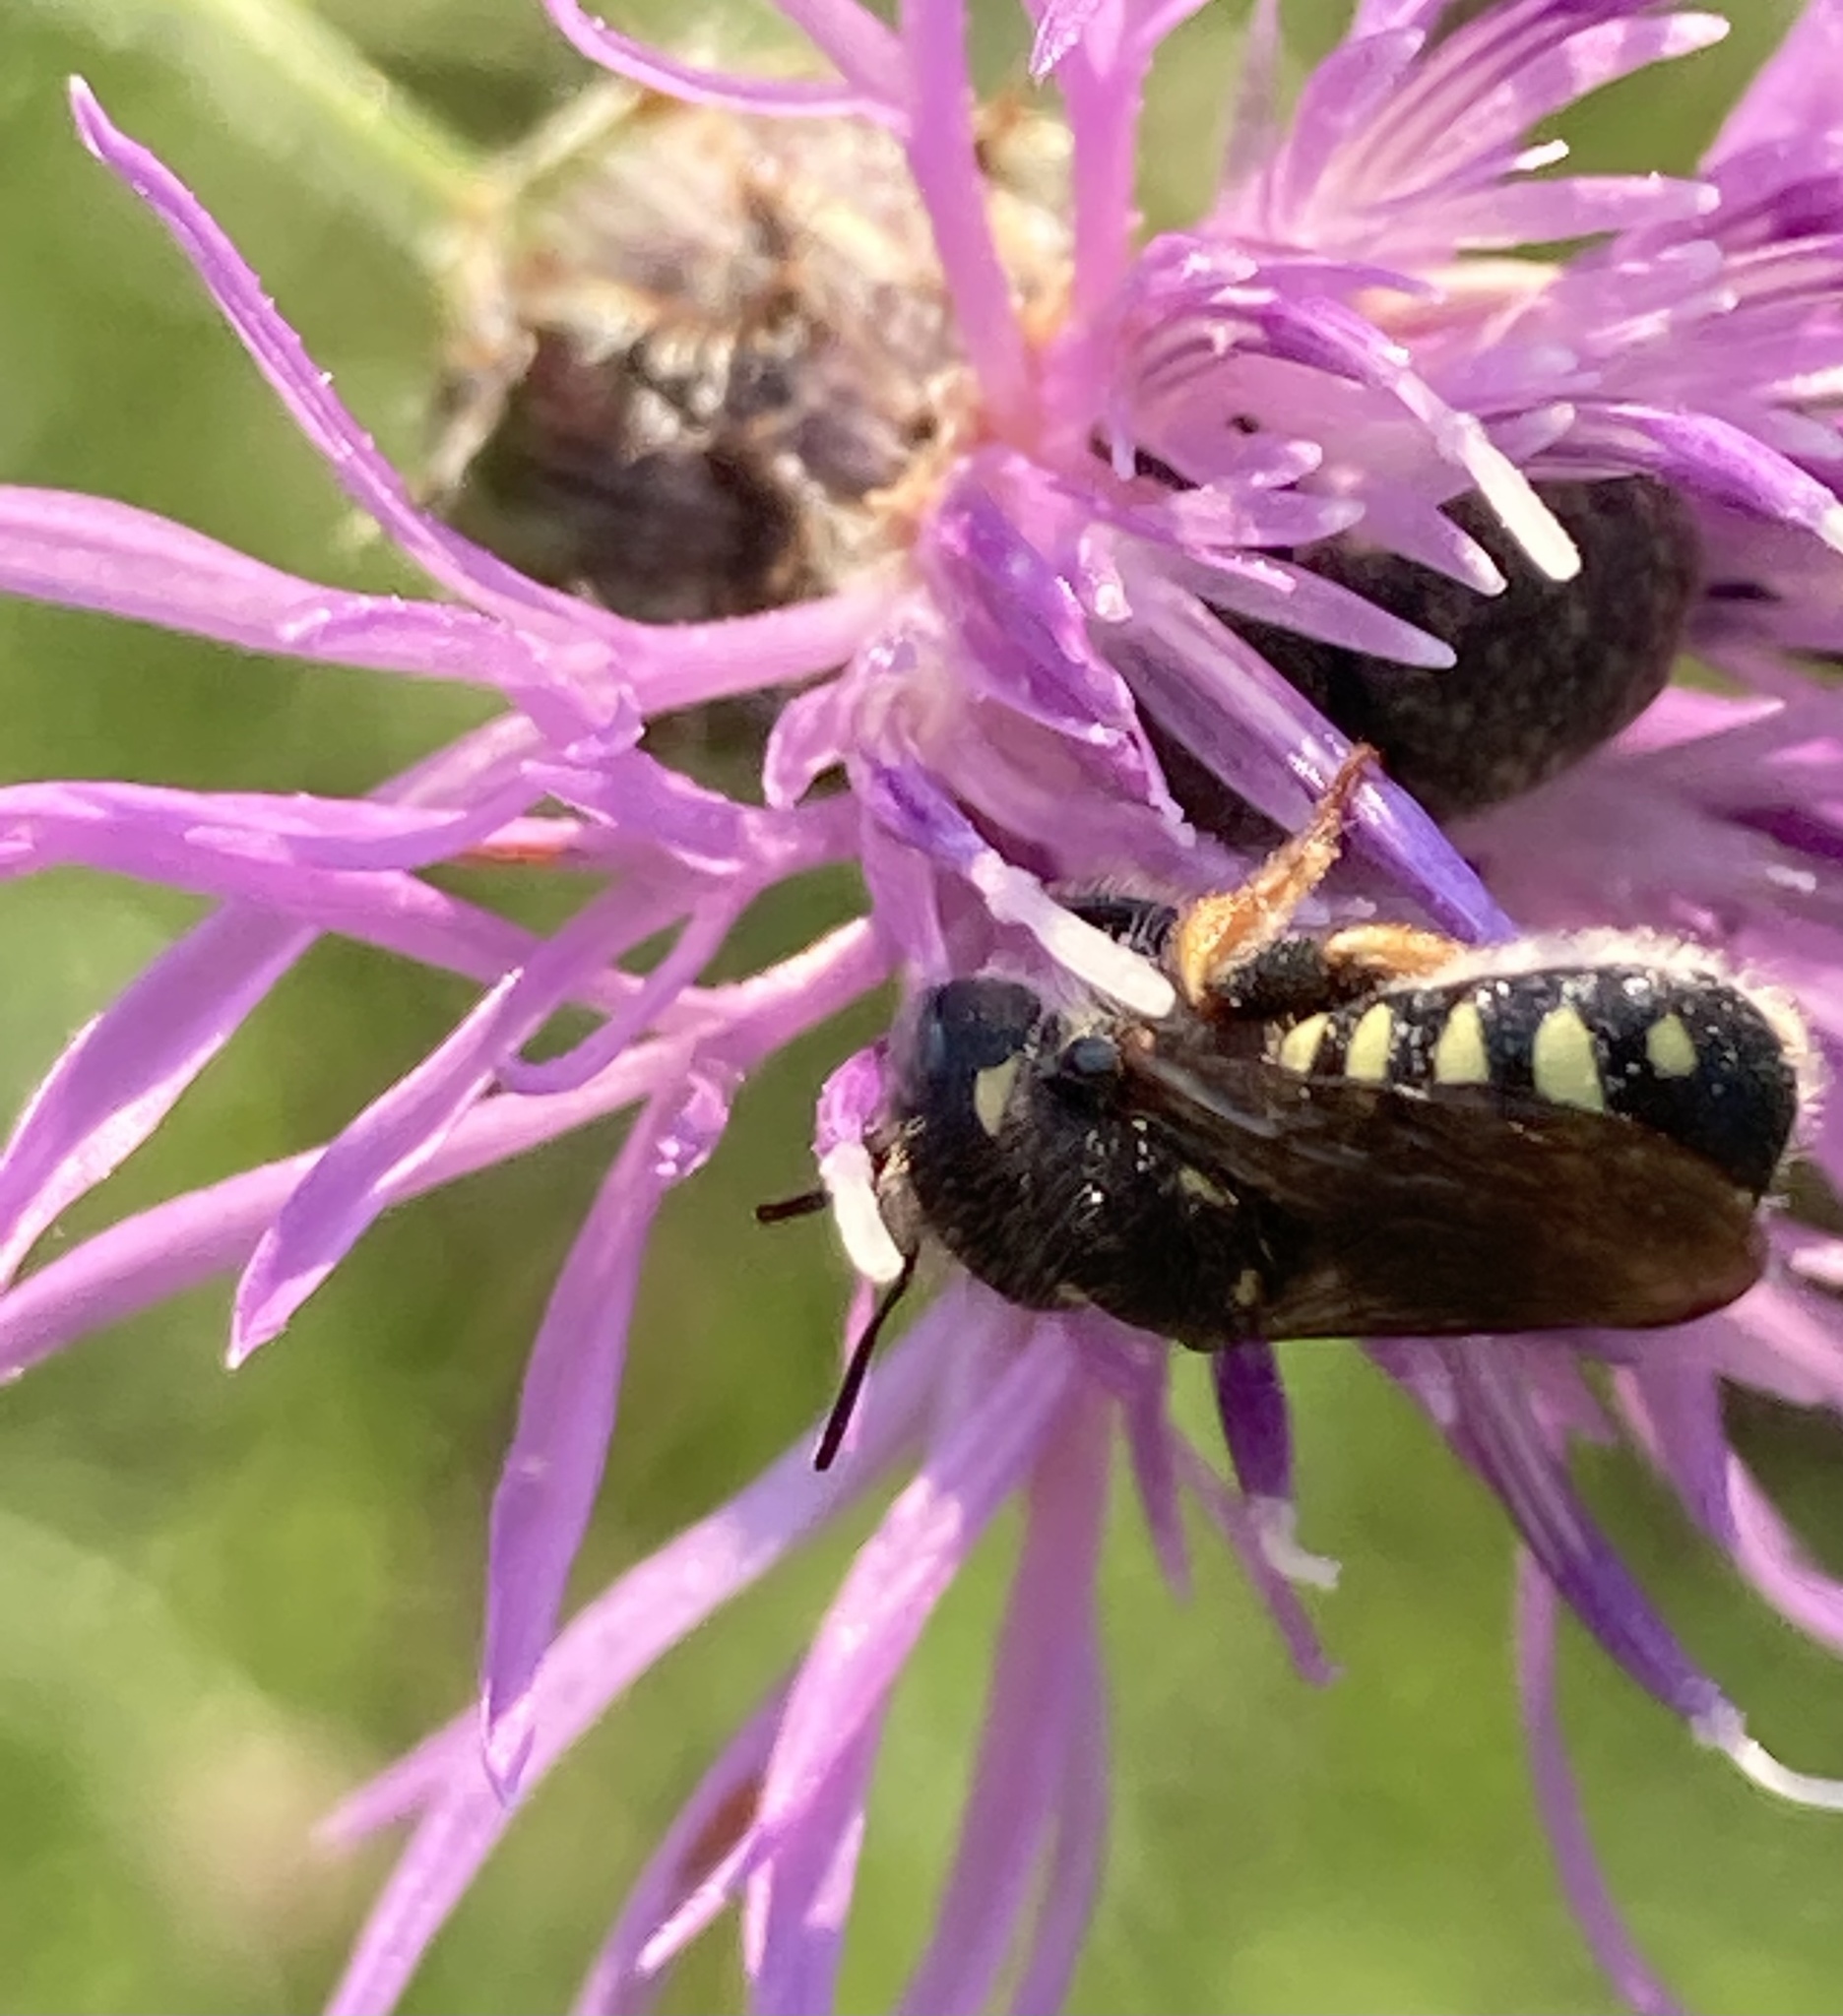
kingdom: Animalia
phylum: Arthropoda
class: Insecta
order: Hymenoptera
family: Megachilidae
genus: Pseudoanthidium
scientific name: Pseudoanthidium nanum
